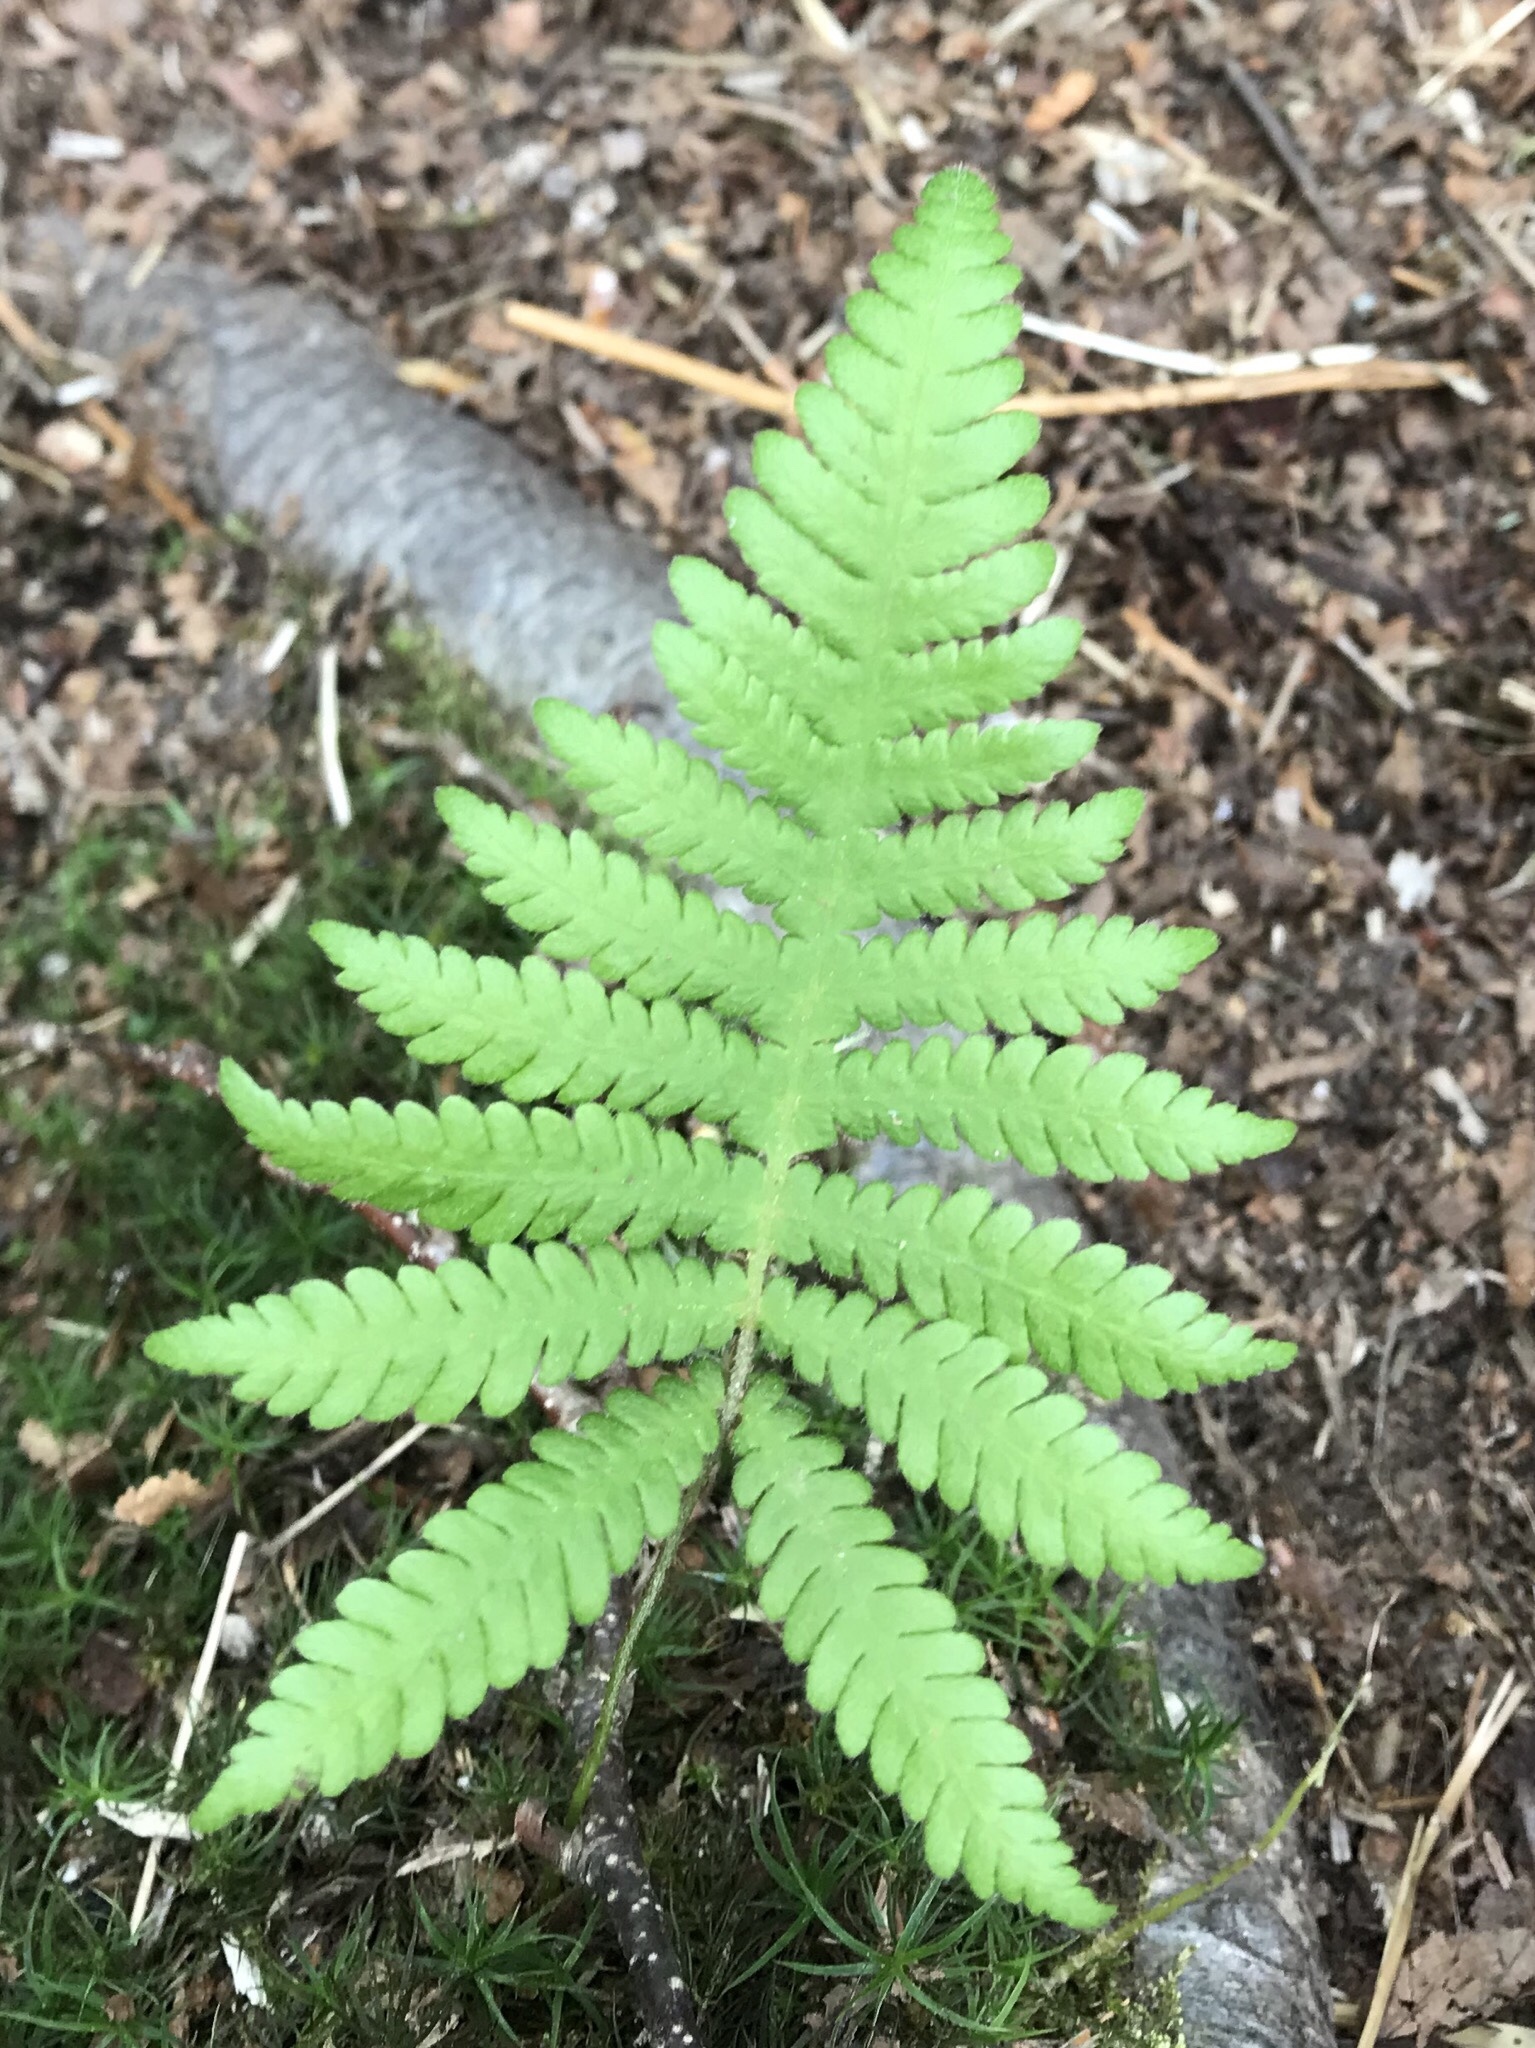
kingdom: Plantae
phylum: Tracheophyta
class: Polypodiopsida
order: Polypodiales
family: Thelypteridaceae
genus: Phegopteris
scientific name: Phegopteris connectilis
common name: Beech fern
